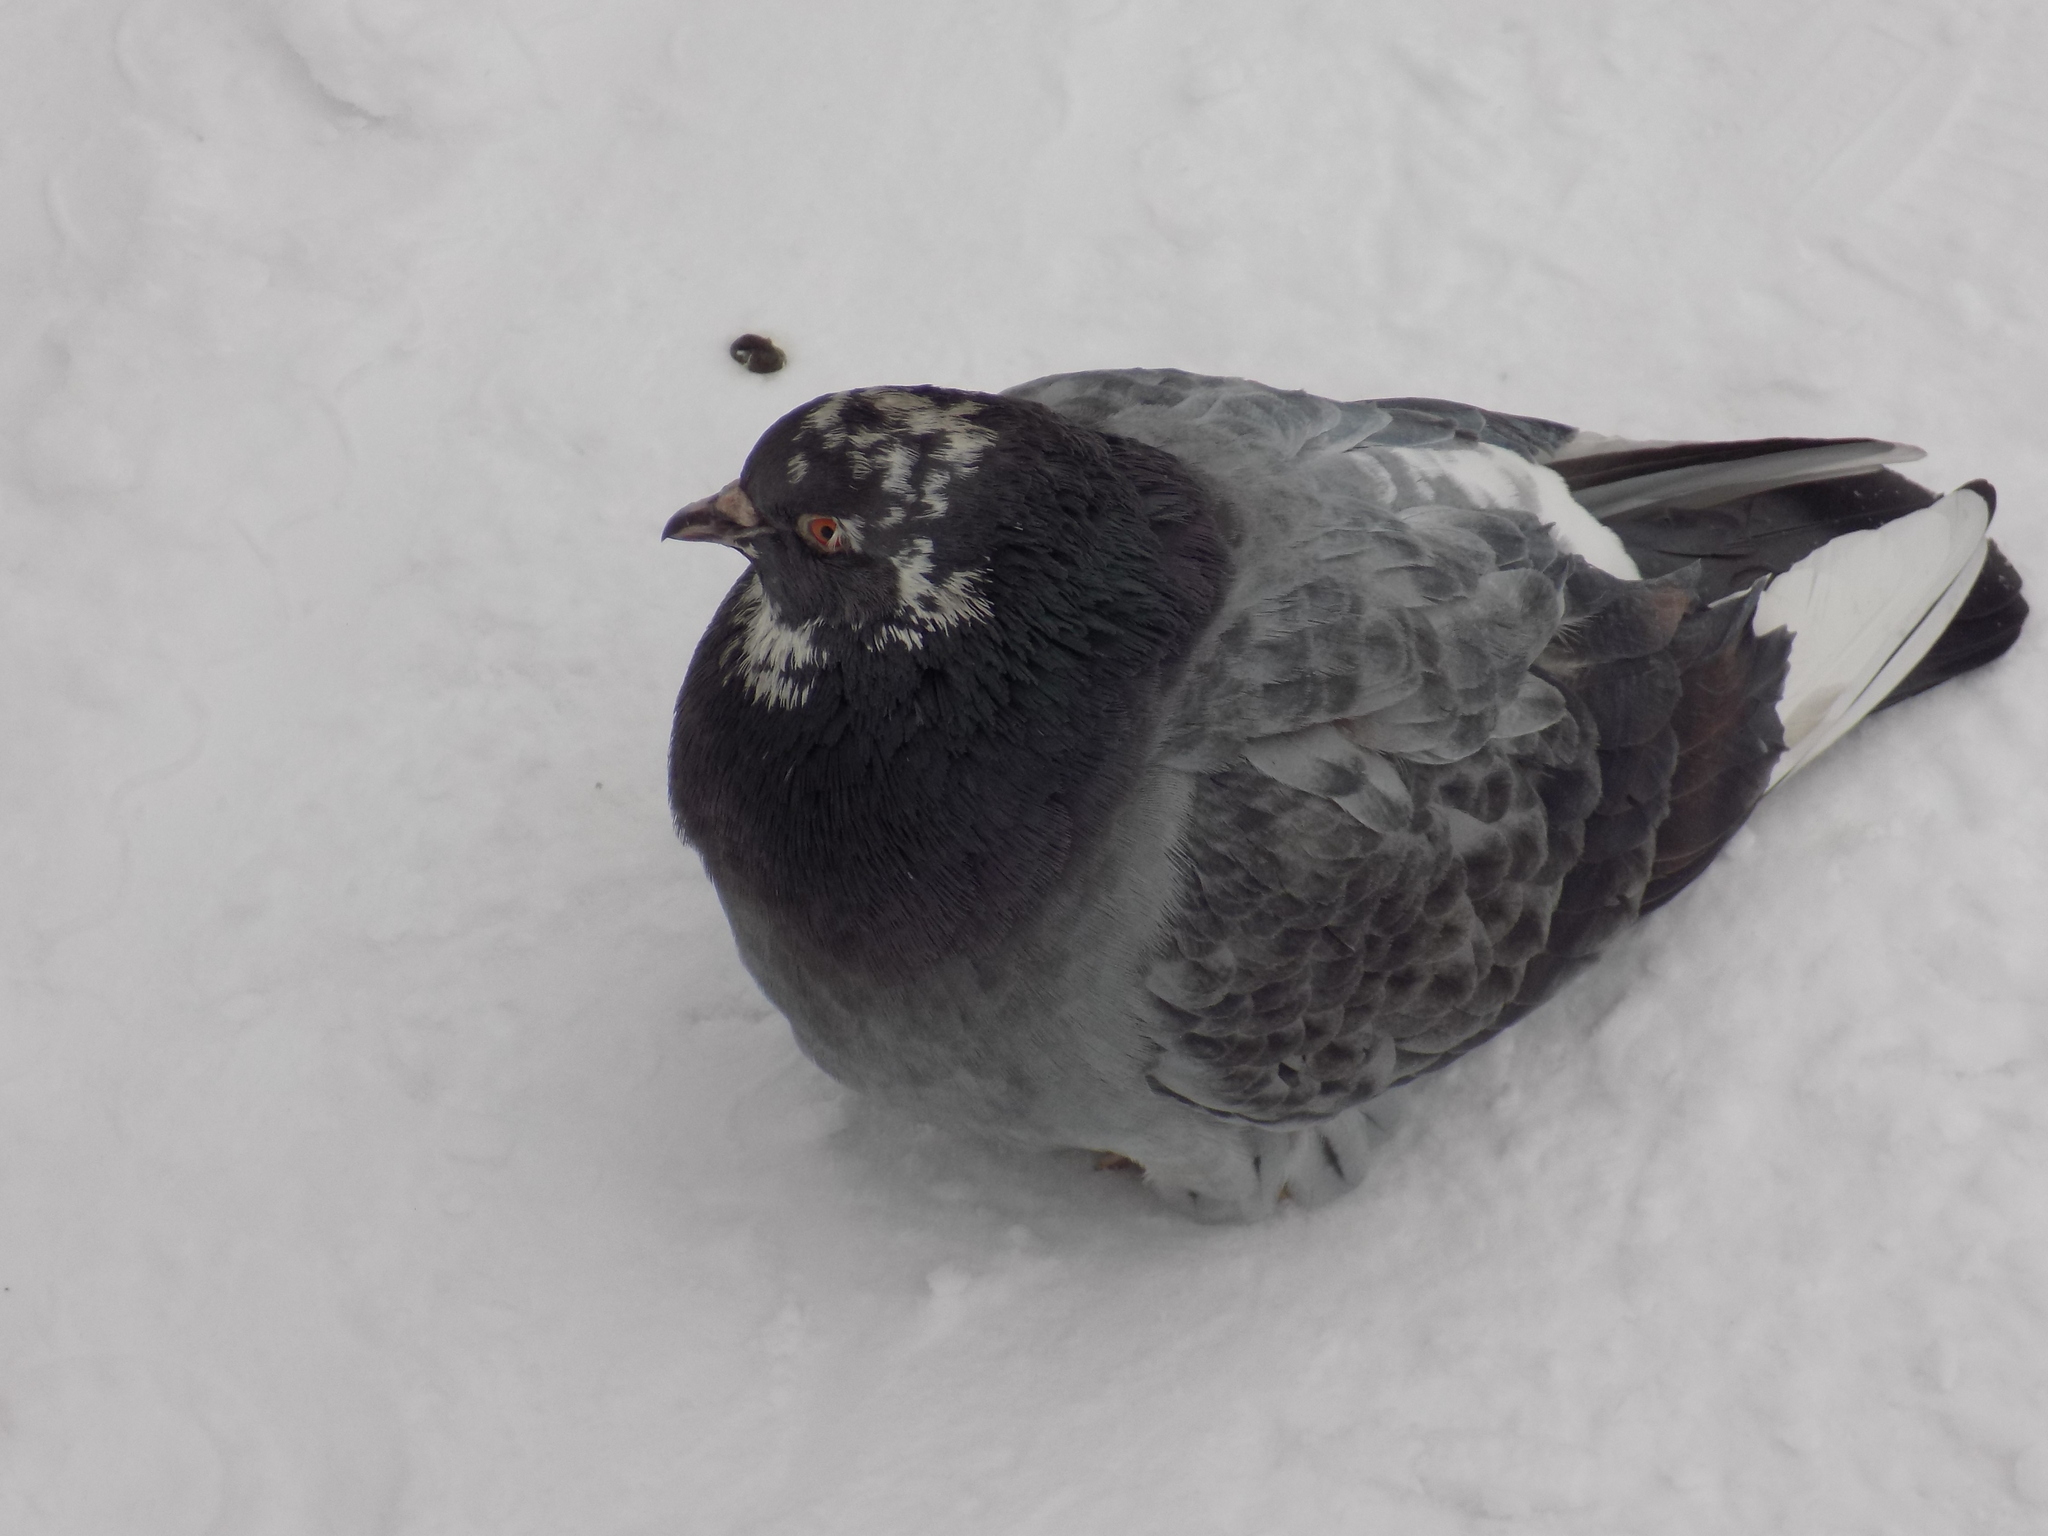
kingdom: Animalia
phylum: Chordata
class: Aves
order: Columbiformes
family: Columbidae
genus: Columba
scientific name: Columba livia
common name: Rock pigeon
